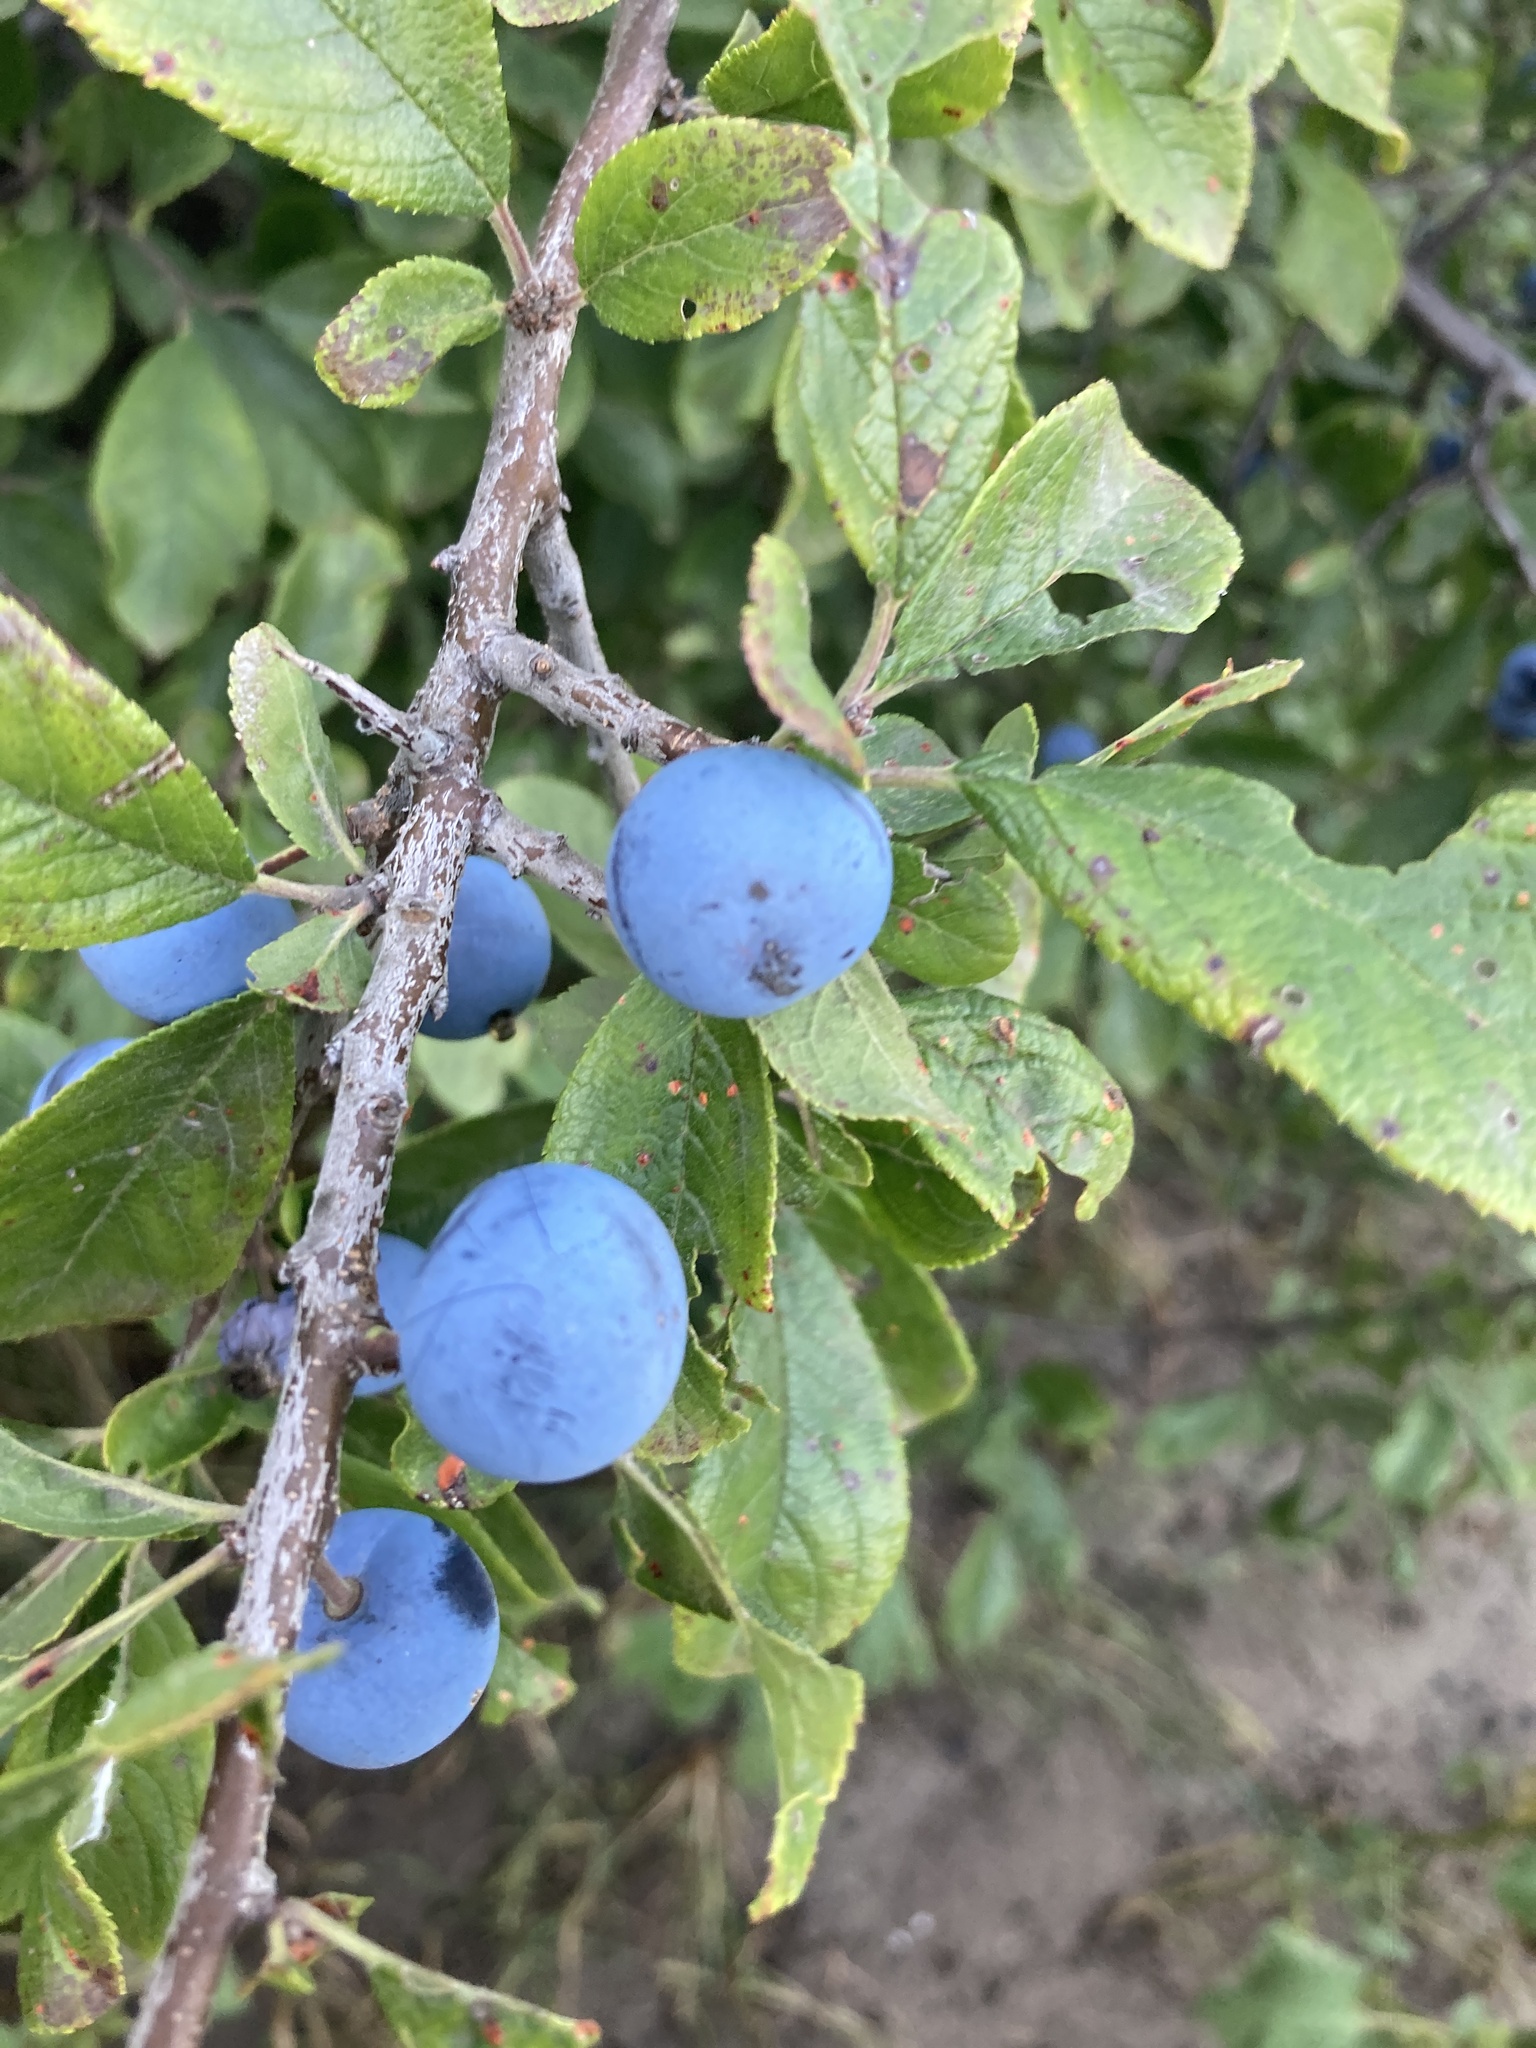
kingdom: Plantae
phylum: Tracheophyta
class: Magnoliopsida
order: Rosales
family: Rosaceae
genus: Prunus
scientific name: Prunus spinosa
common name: Blackthorn
